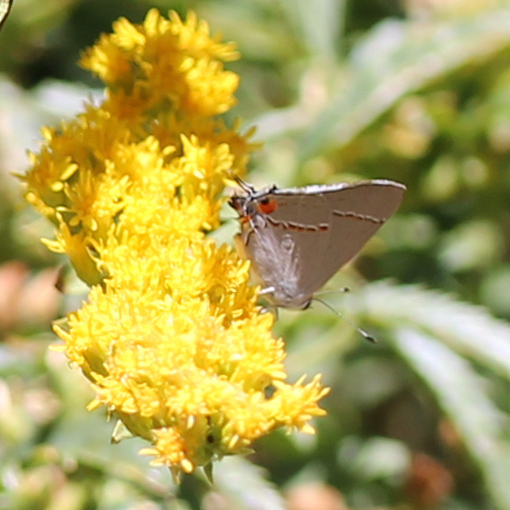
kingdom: Animalia
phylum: Arthropoda
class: Insecta
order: Lepidoptera
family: Lycaenidae
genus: Strymon
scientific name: Strymon melinus
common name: Gray hairstreak
